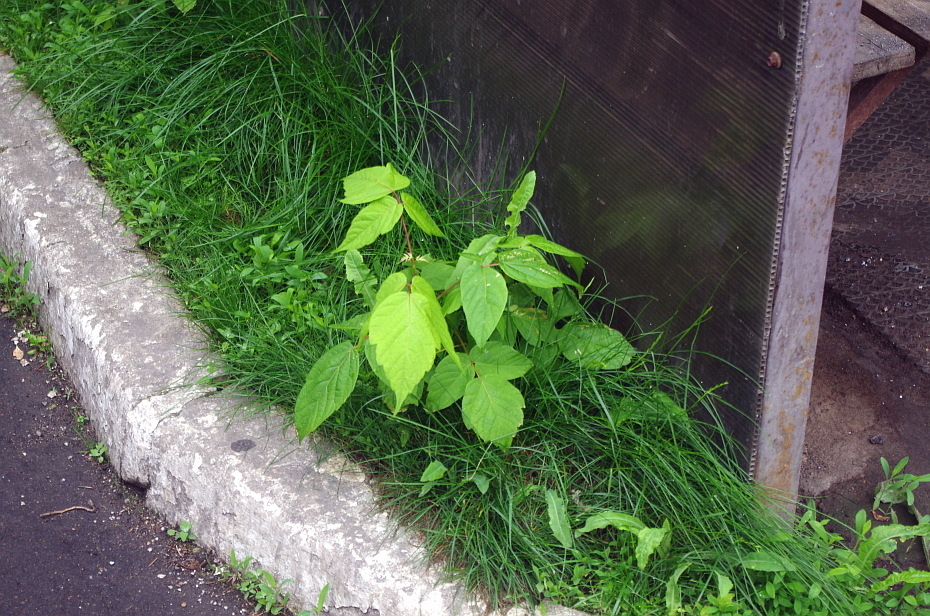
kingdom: Plantae
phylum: Tracheophyta
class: Magnoliopsida
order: Sapindales
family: Sapindaceae
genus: Acer
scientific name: Acer negundo
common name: Ashleaf maple
